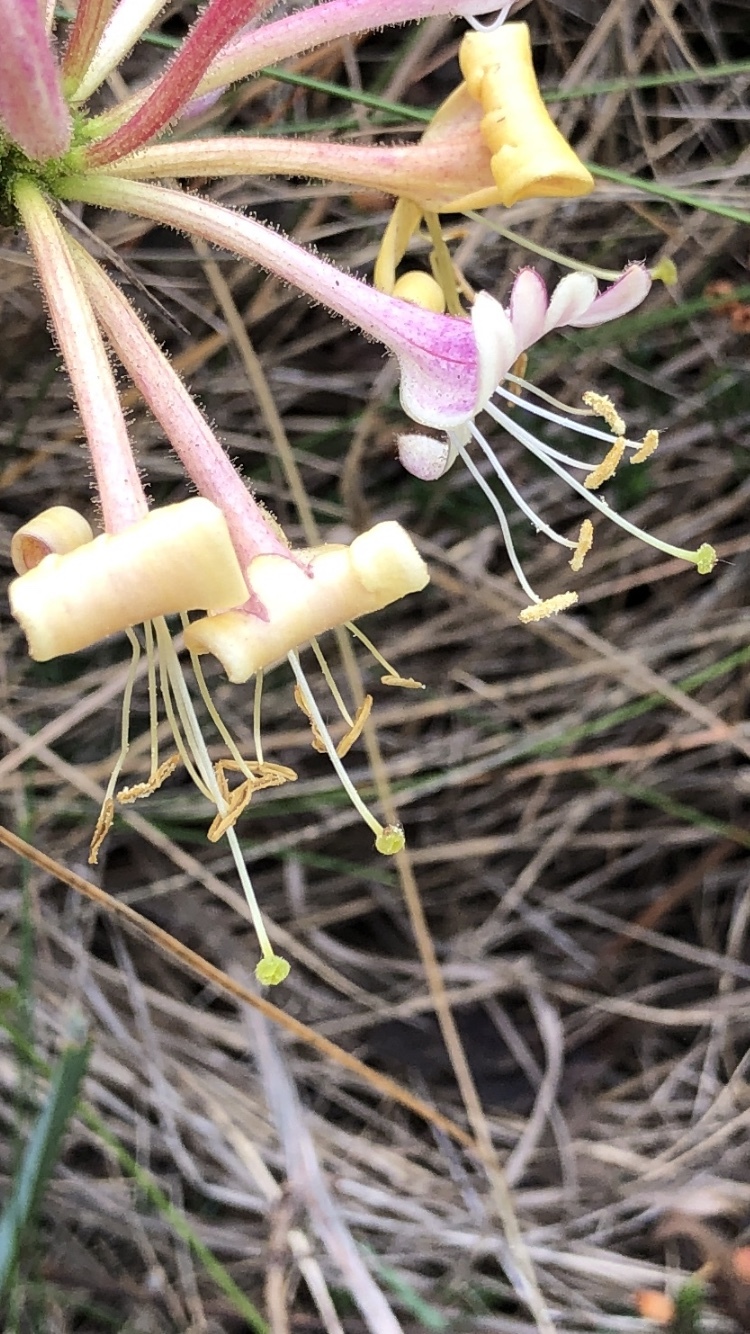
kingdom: Plantae
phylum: Tracheophyta
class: Magnoliopsida
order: Dipsacales
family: Caprifoliaceae
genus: Lonicera
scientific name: Lonicera periclymenum
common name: European honeysuckle
